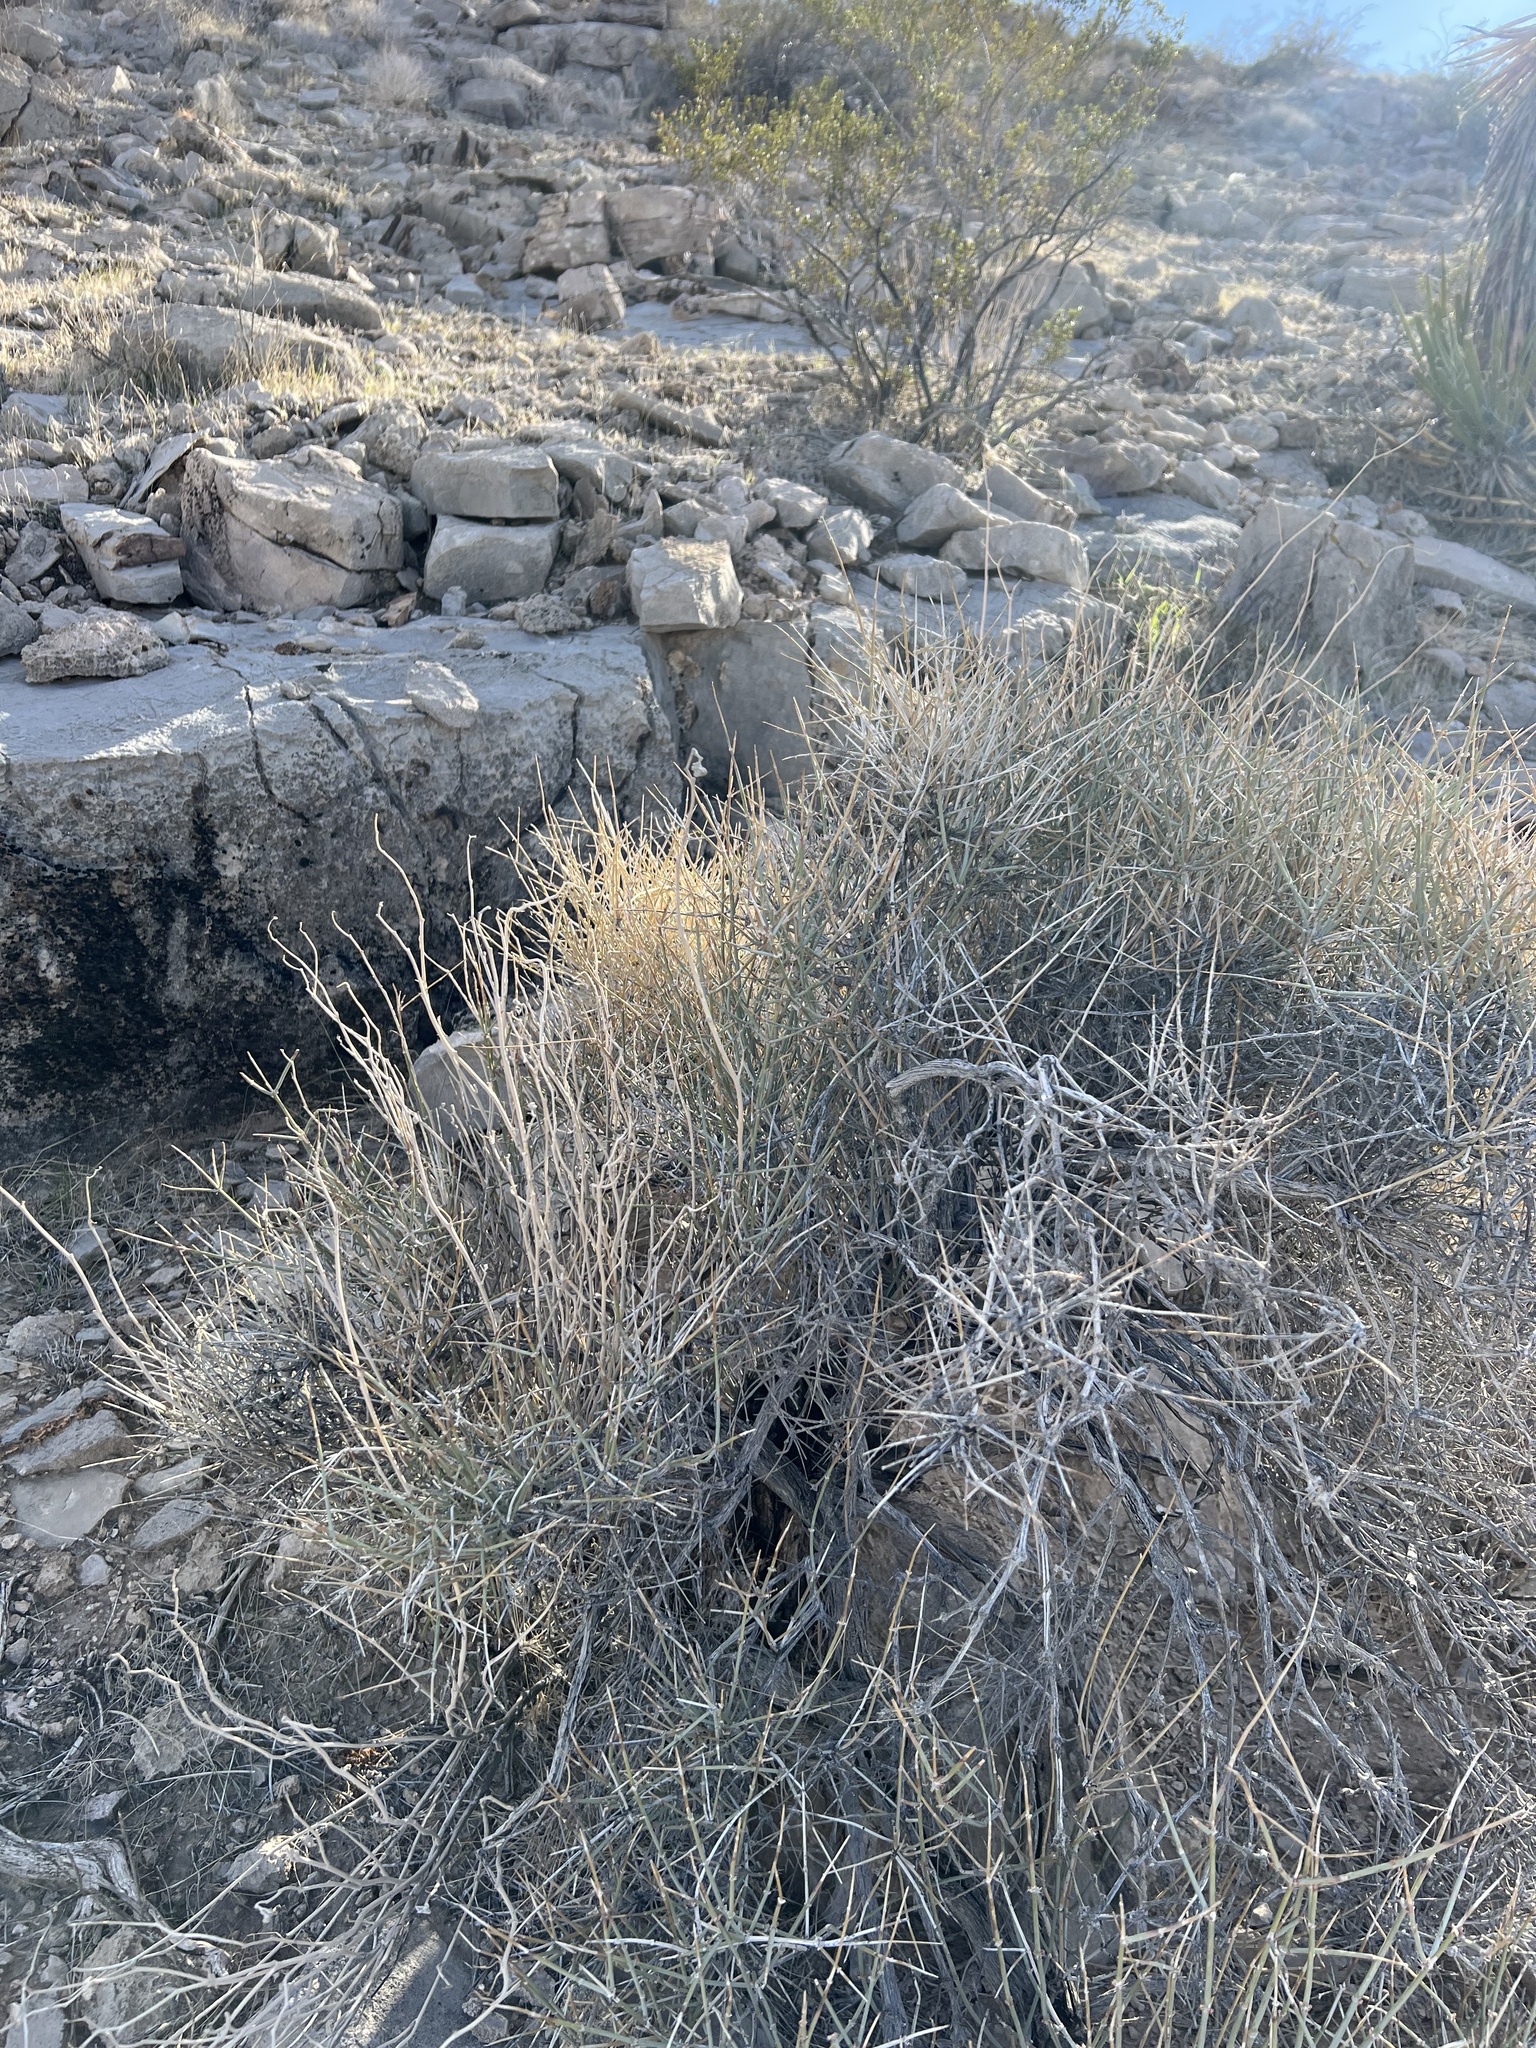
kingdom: Plantae
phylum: Tracheophyta
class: Gnetopsida
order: Ephedrales
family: Ephedraceae
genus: Ephedra
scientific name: Ephedra nevadensis
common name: Gray ephedra
